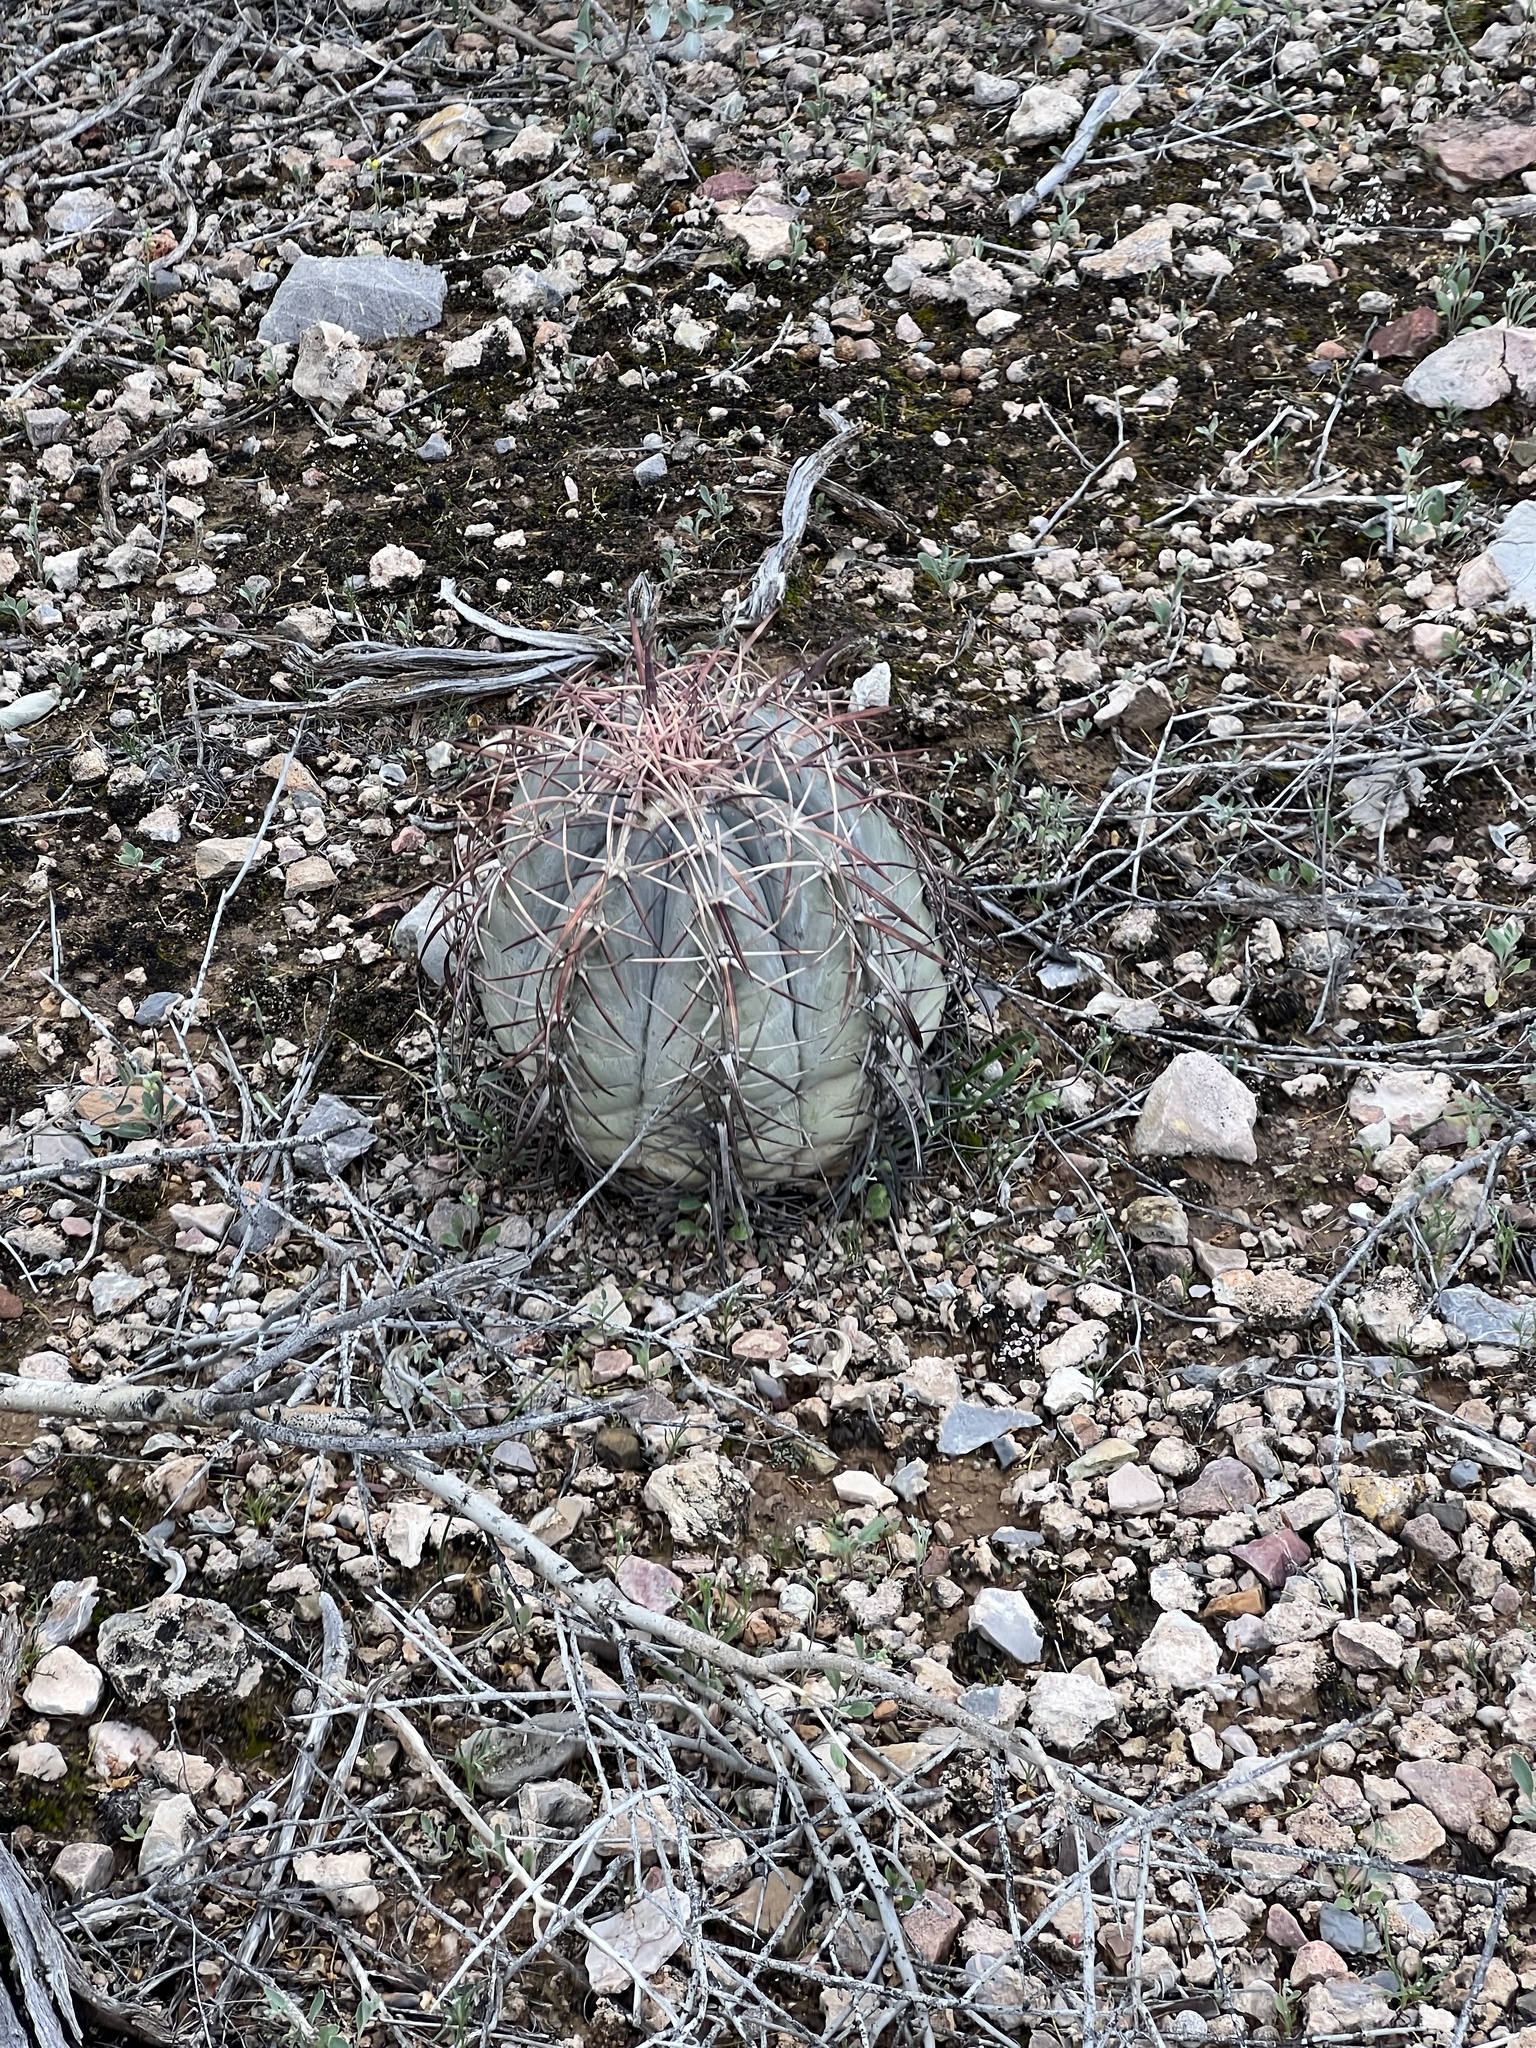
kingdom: Plantae
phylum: Tracheophyta
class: Magnoliopsida
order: Caryophyllales
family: Cactaceae
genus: Echinocactus
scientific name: Echinocactus horizonthalonius
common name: Devilshead
